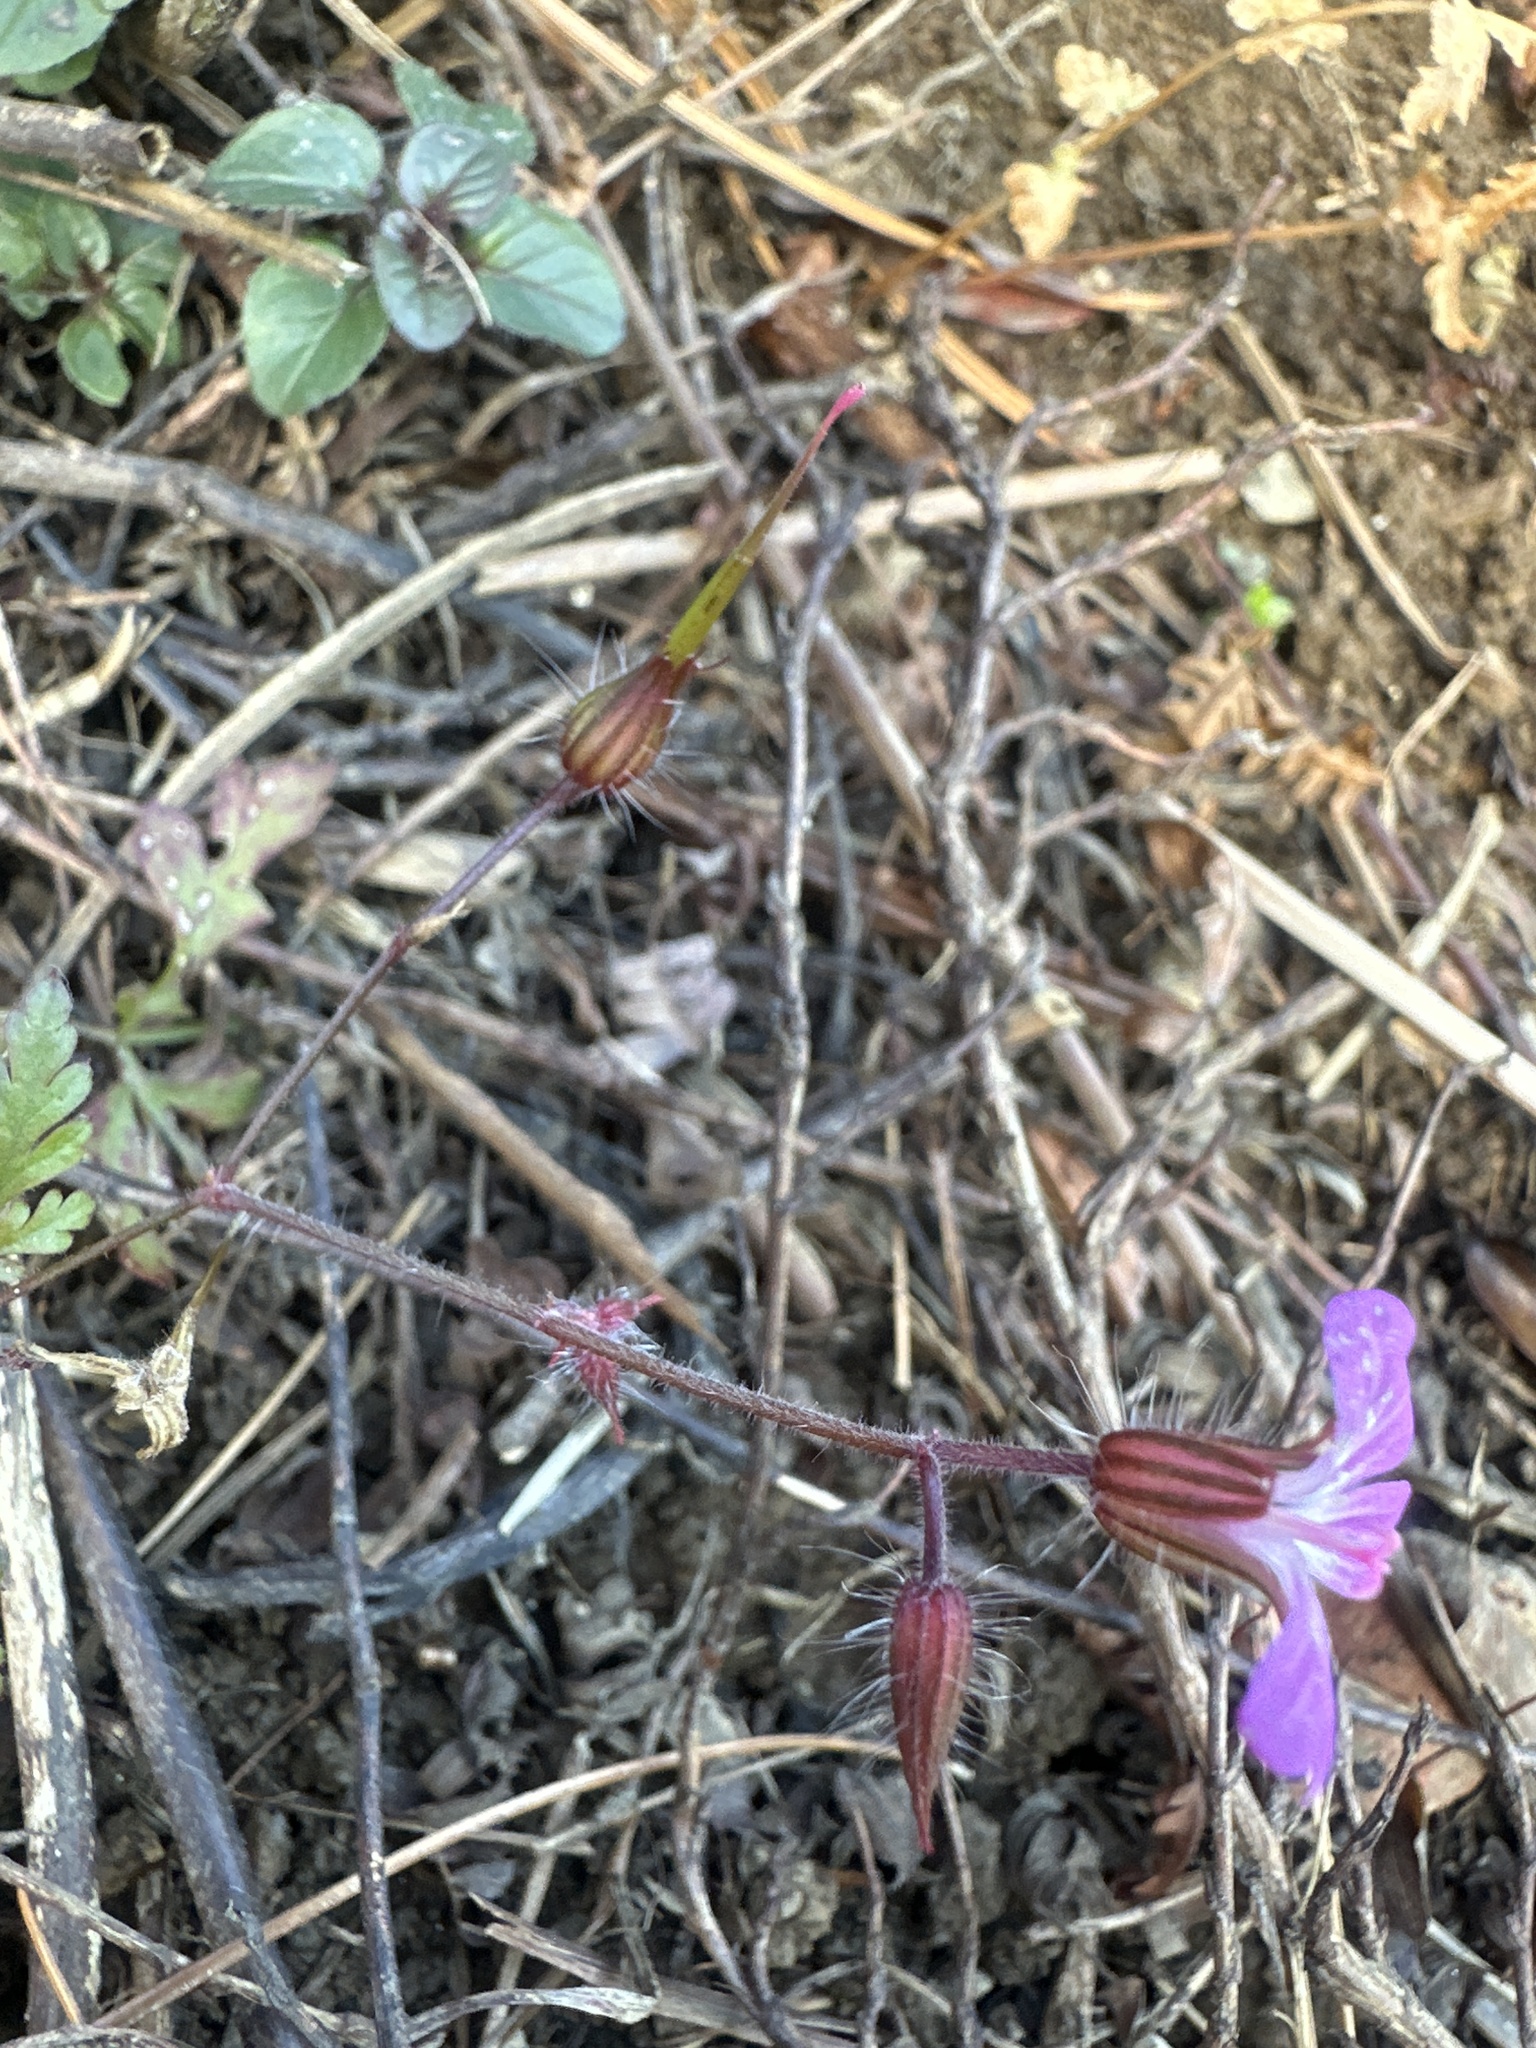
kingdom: Plantae
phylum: Tracheophyta
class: Magnoliopsida
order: Geraniales
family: Geraniaceae
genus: Geranium
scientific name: Geranium robertianum
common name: Herb-robert
